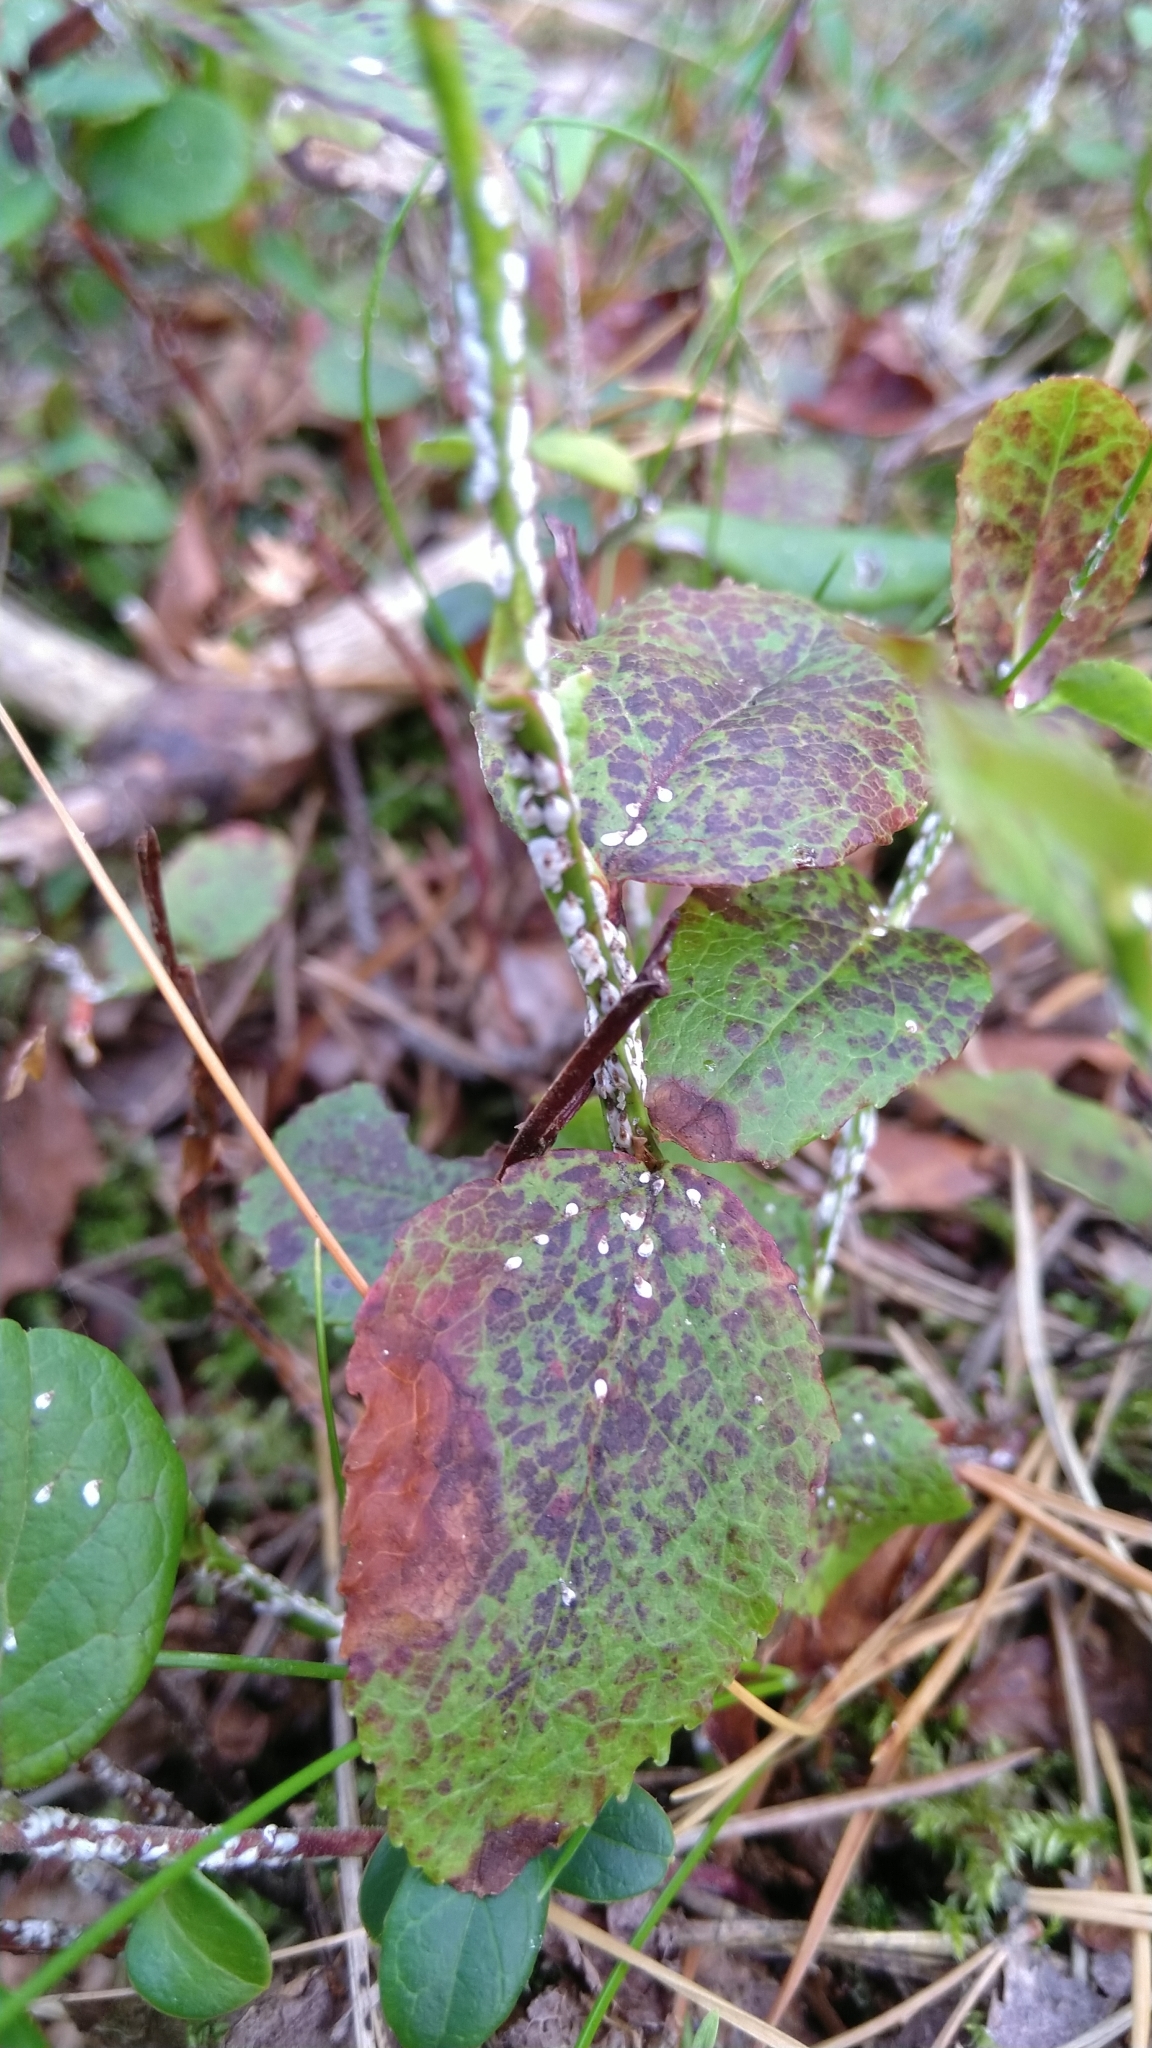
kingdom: Animalia
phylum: Arthropoda
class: Insecta
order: Hemiptera
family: Diaspididae
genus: Chionaspis
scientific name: Chionaspis salicis
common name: Willow scale
